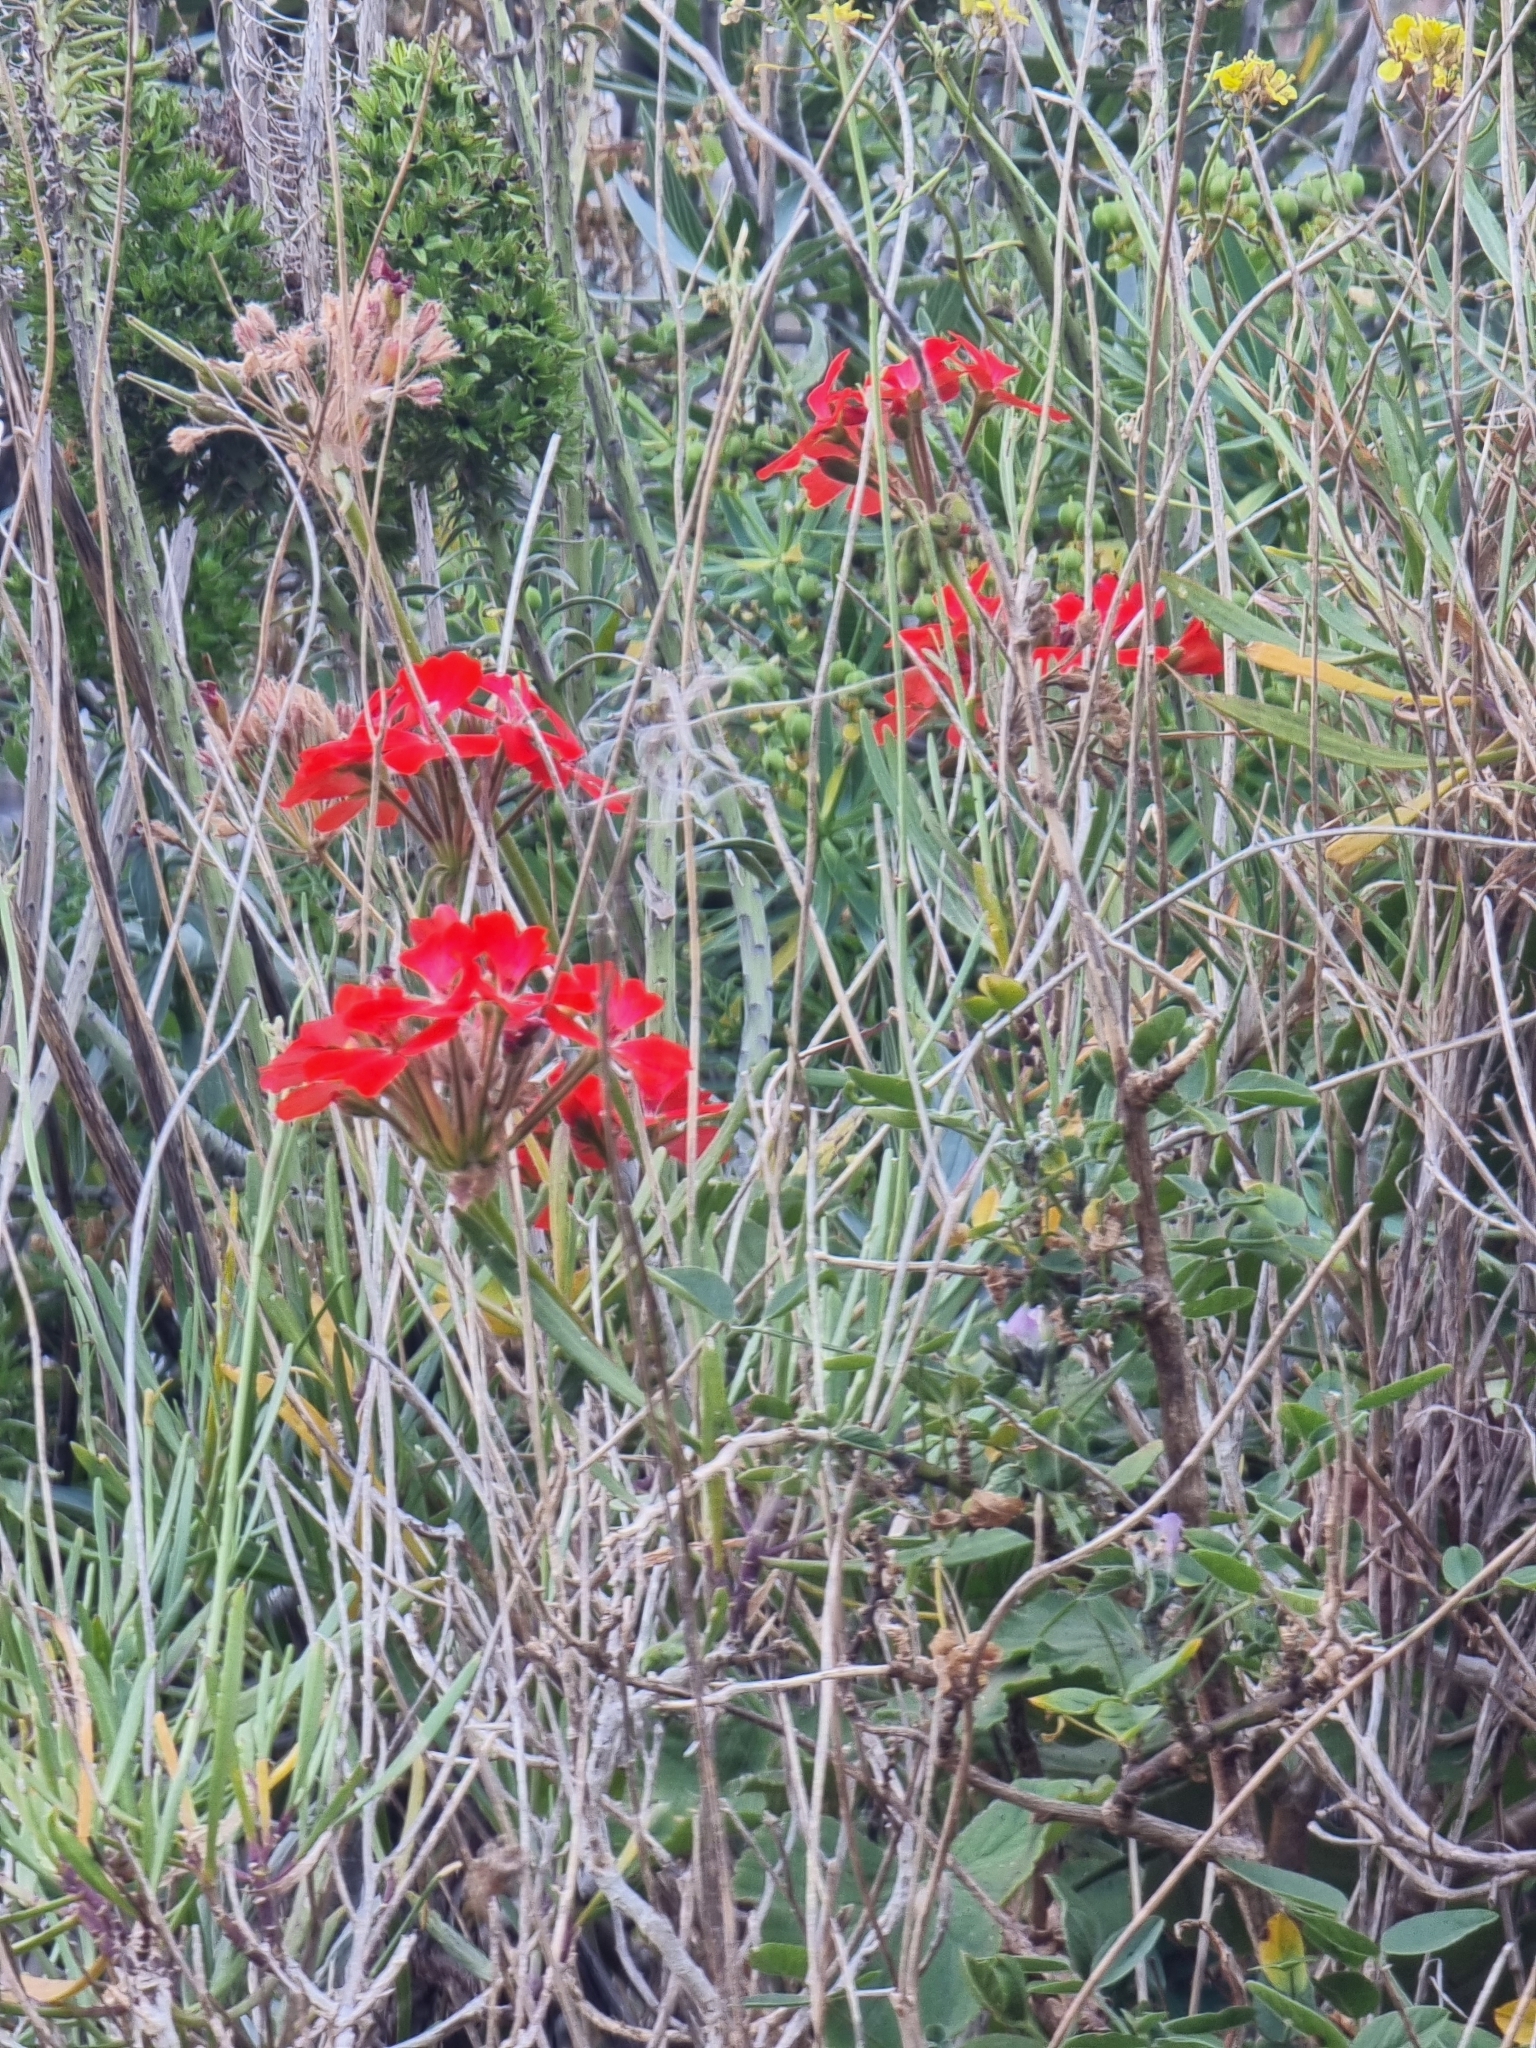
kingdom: Plantae
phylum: Tracheophyta
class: Magnoliopsida
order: Geraniales
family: Geraniaceae
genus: Pelargonium
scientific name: Pelargonium hybridum
